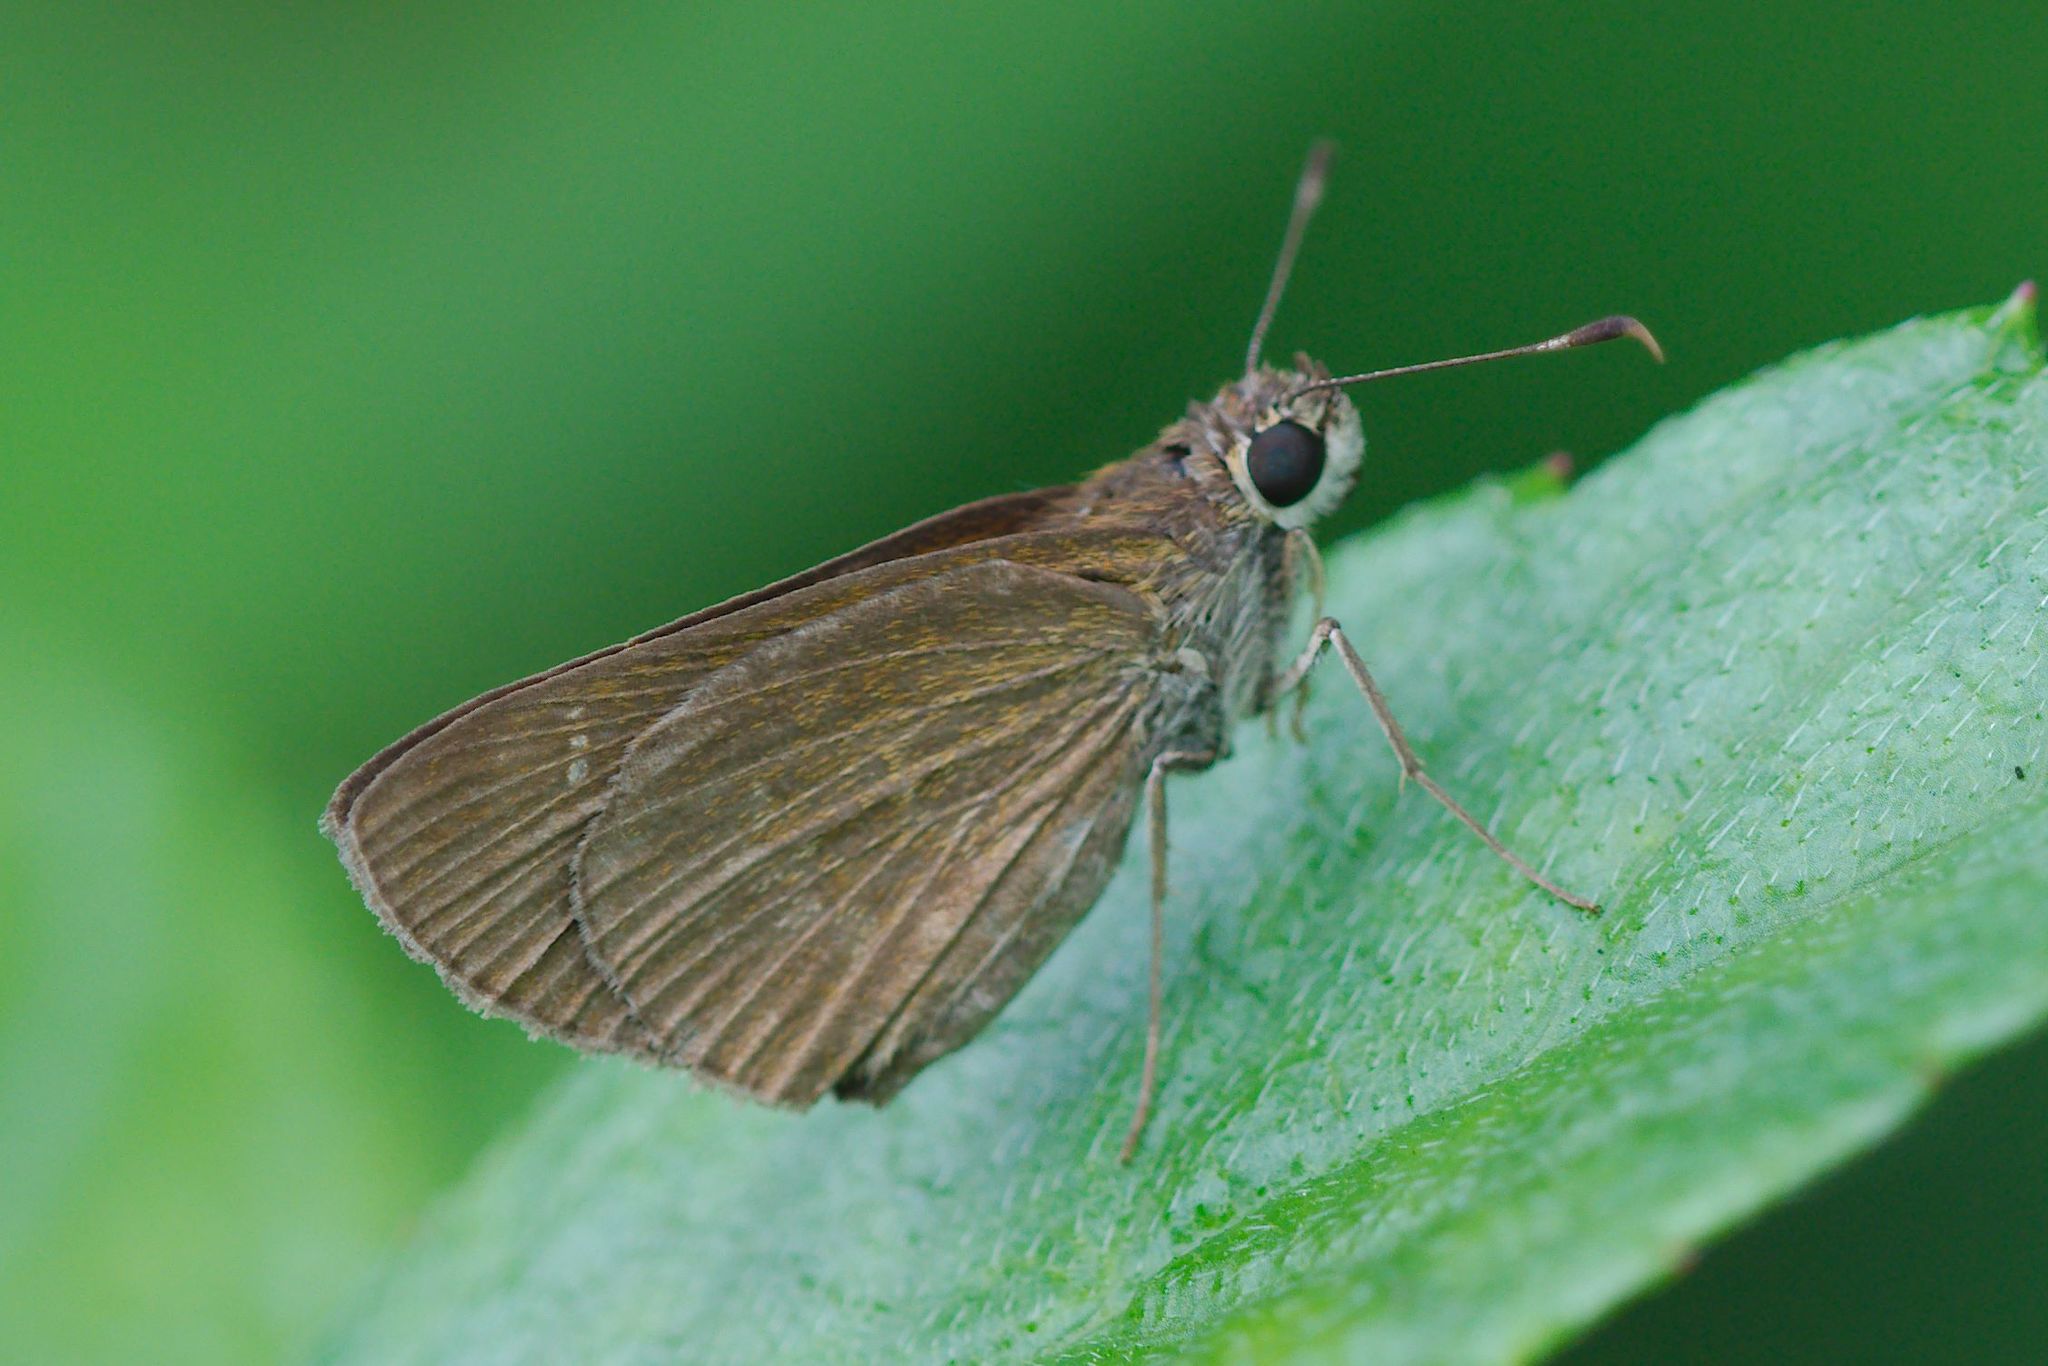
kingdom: Animalia
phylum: Arthropoda
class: Insecta
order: Lepidoptera
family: Hesperiidae
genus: Cymaenes
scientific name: Cymaenes tripunctus
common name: Dingy dotted skipper
